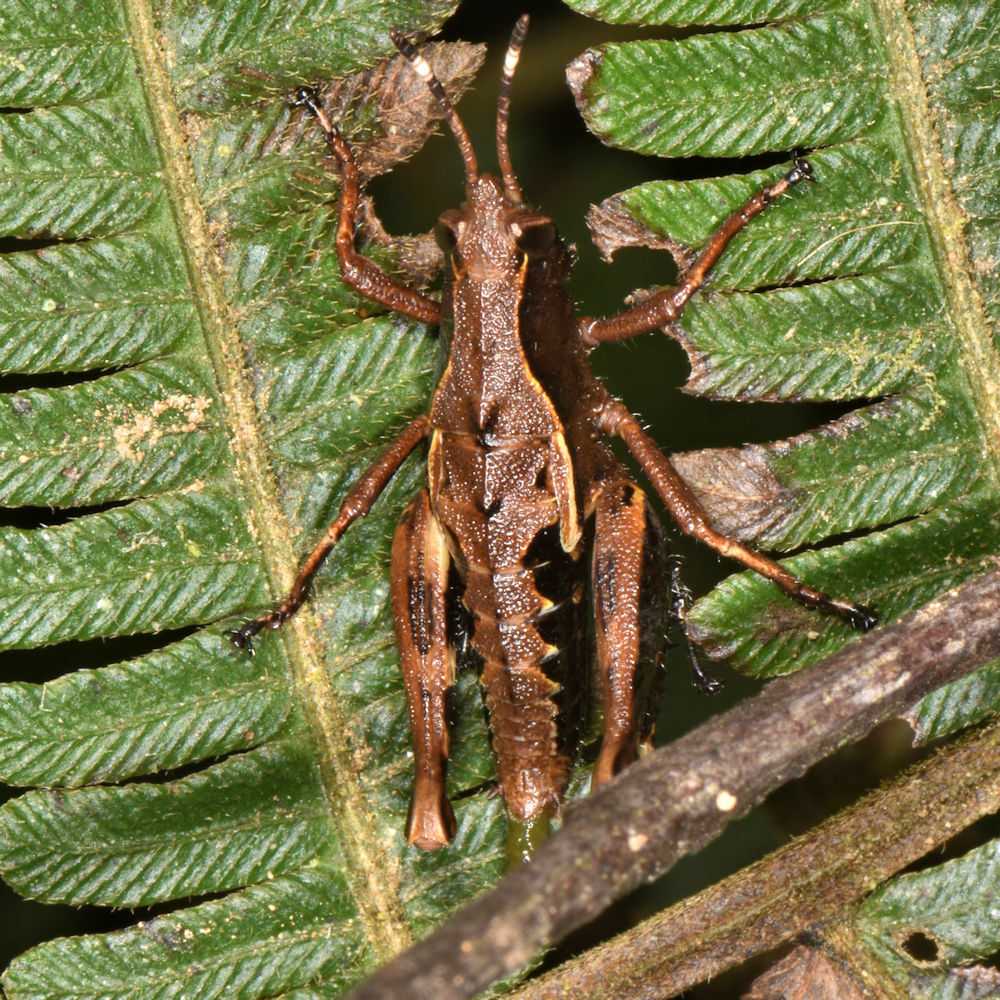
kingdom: Animalia
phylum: Arthropoda
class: Insecta
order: Orthoptera
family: Acrididae
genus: Microtylopteryx
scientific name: Microtylopteryx fusiformis
